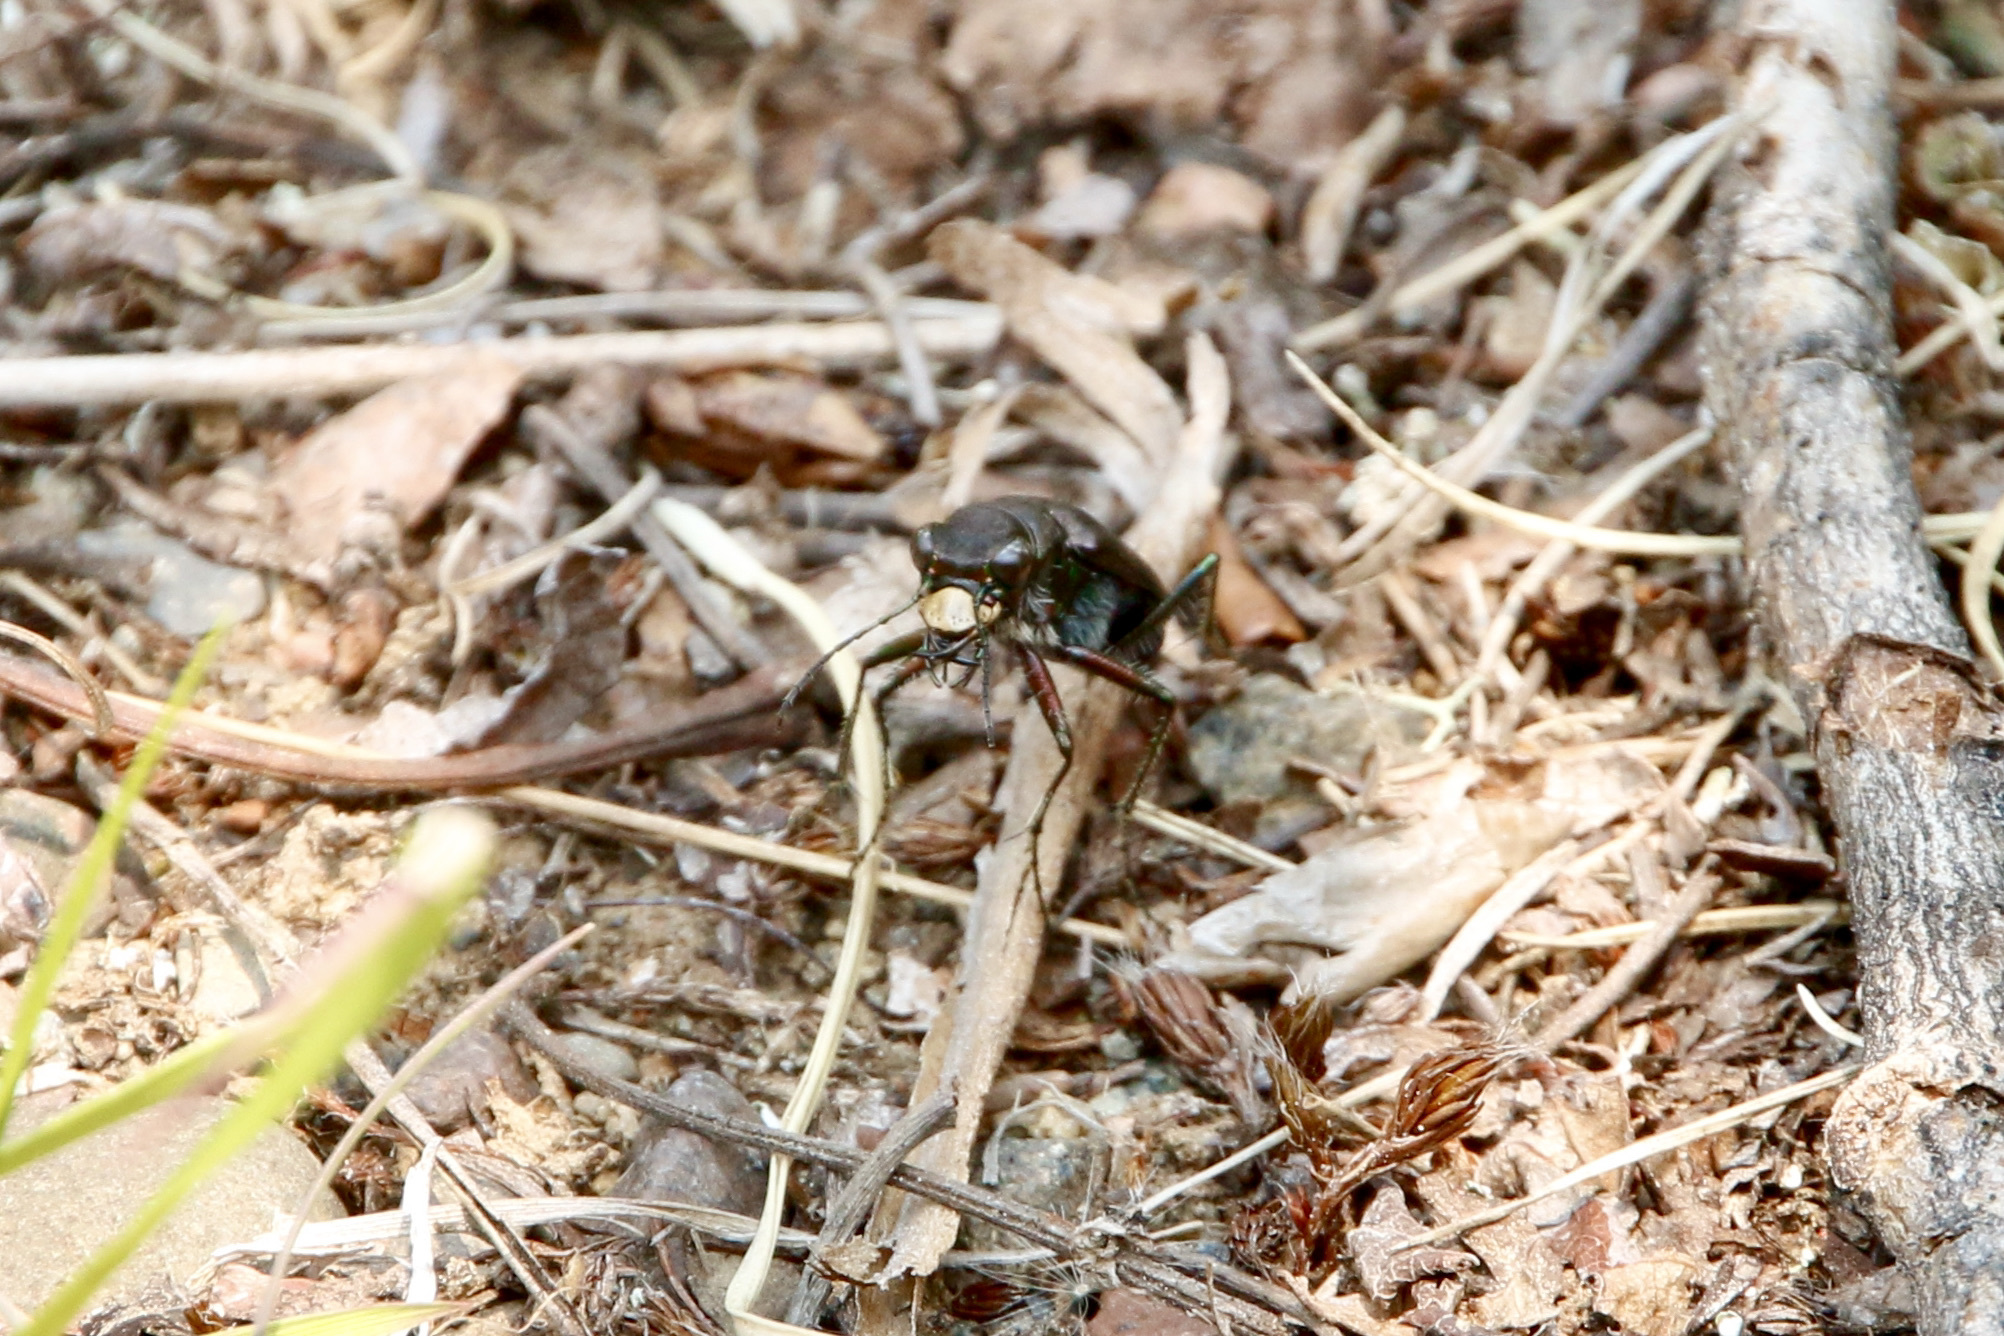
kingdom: Animalia
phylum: Arthropoda
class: Insecta
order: Coleoptera
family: Carabidae
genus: Cicindela
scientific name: Cicindela longilabris
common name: Boreal long-lipped tiger beetle
